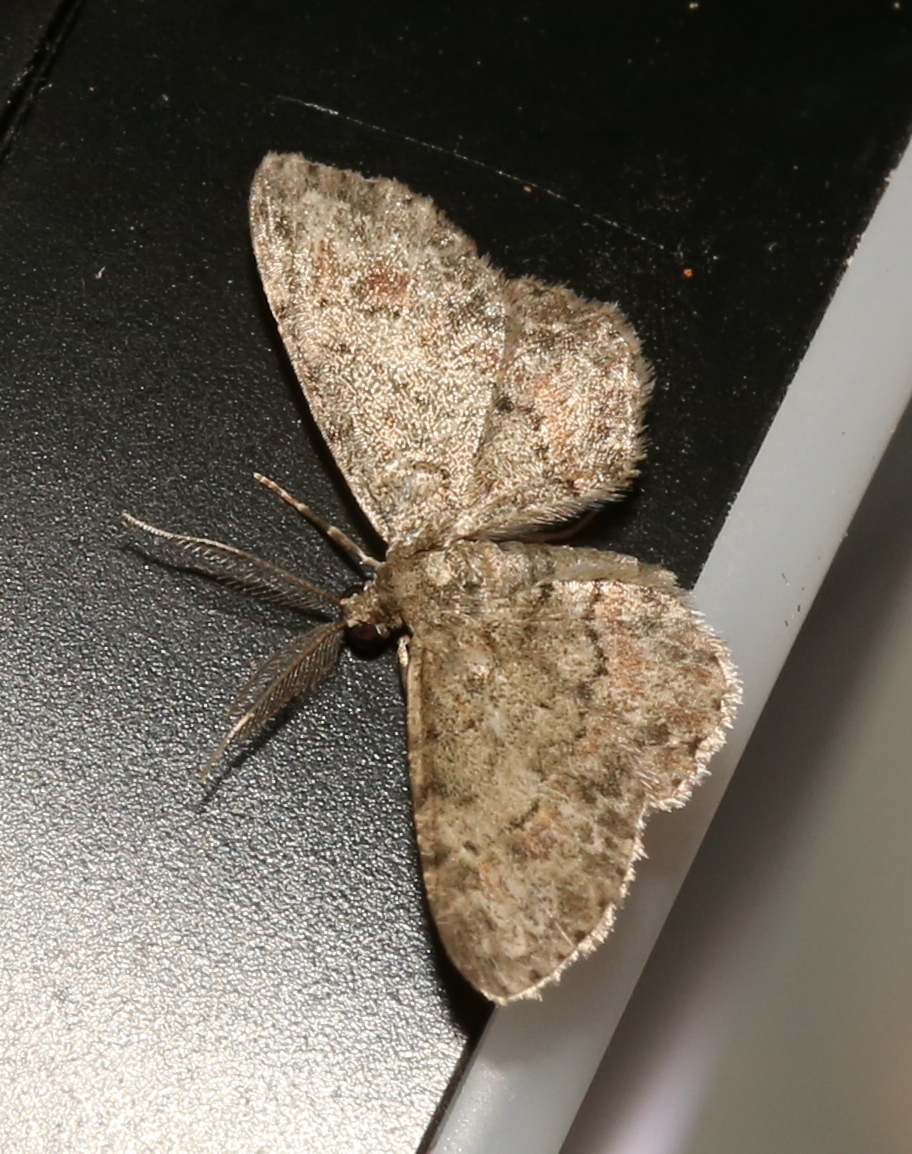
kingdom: Animalia
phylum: Arthropoda
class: Insecta
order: Lepidoptera
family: Geometridae
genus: Glenoides
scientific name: Glenoides texanaria
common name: Texas gray
